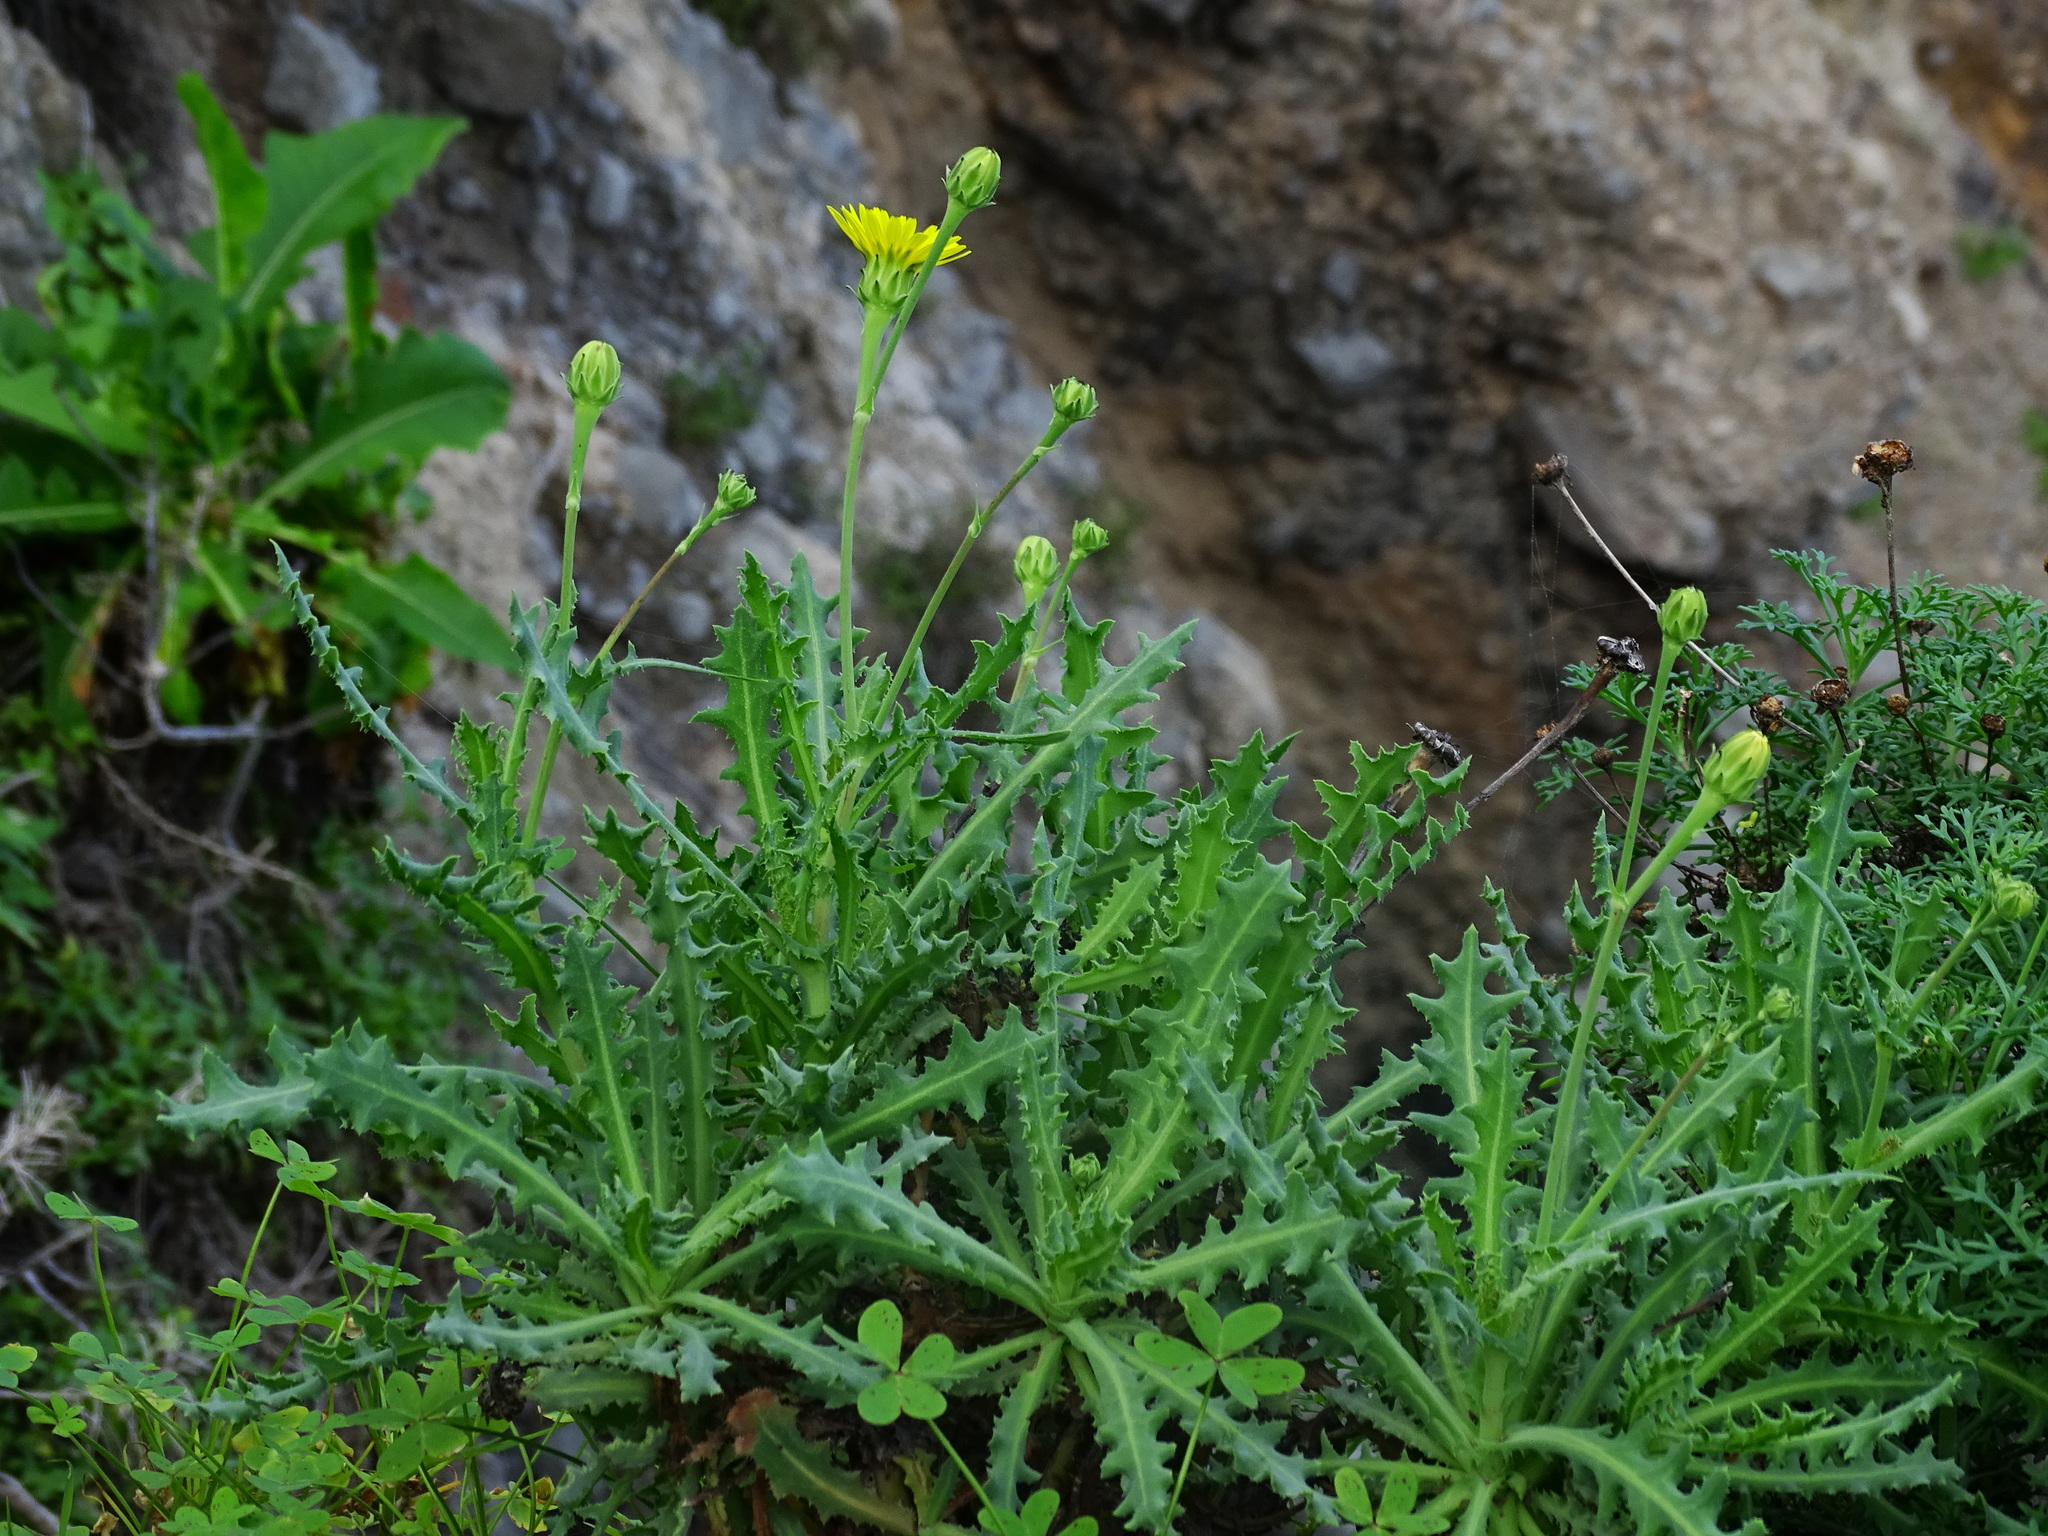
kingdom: Plantae
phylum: Tracheophyta
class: Magnoliopsida
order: Asterales
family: Asteraceae
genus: Reichardia
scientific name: Reichardia ligulata
